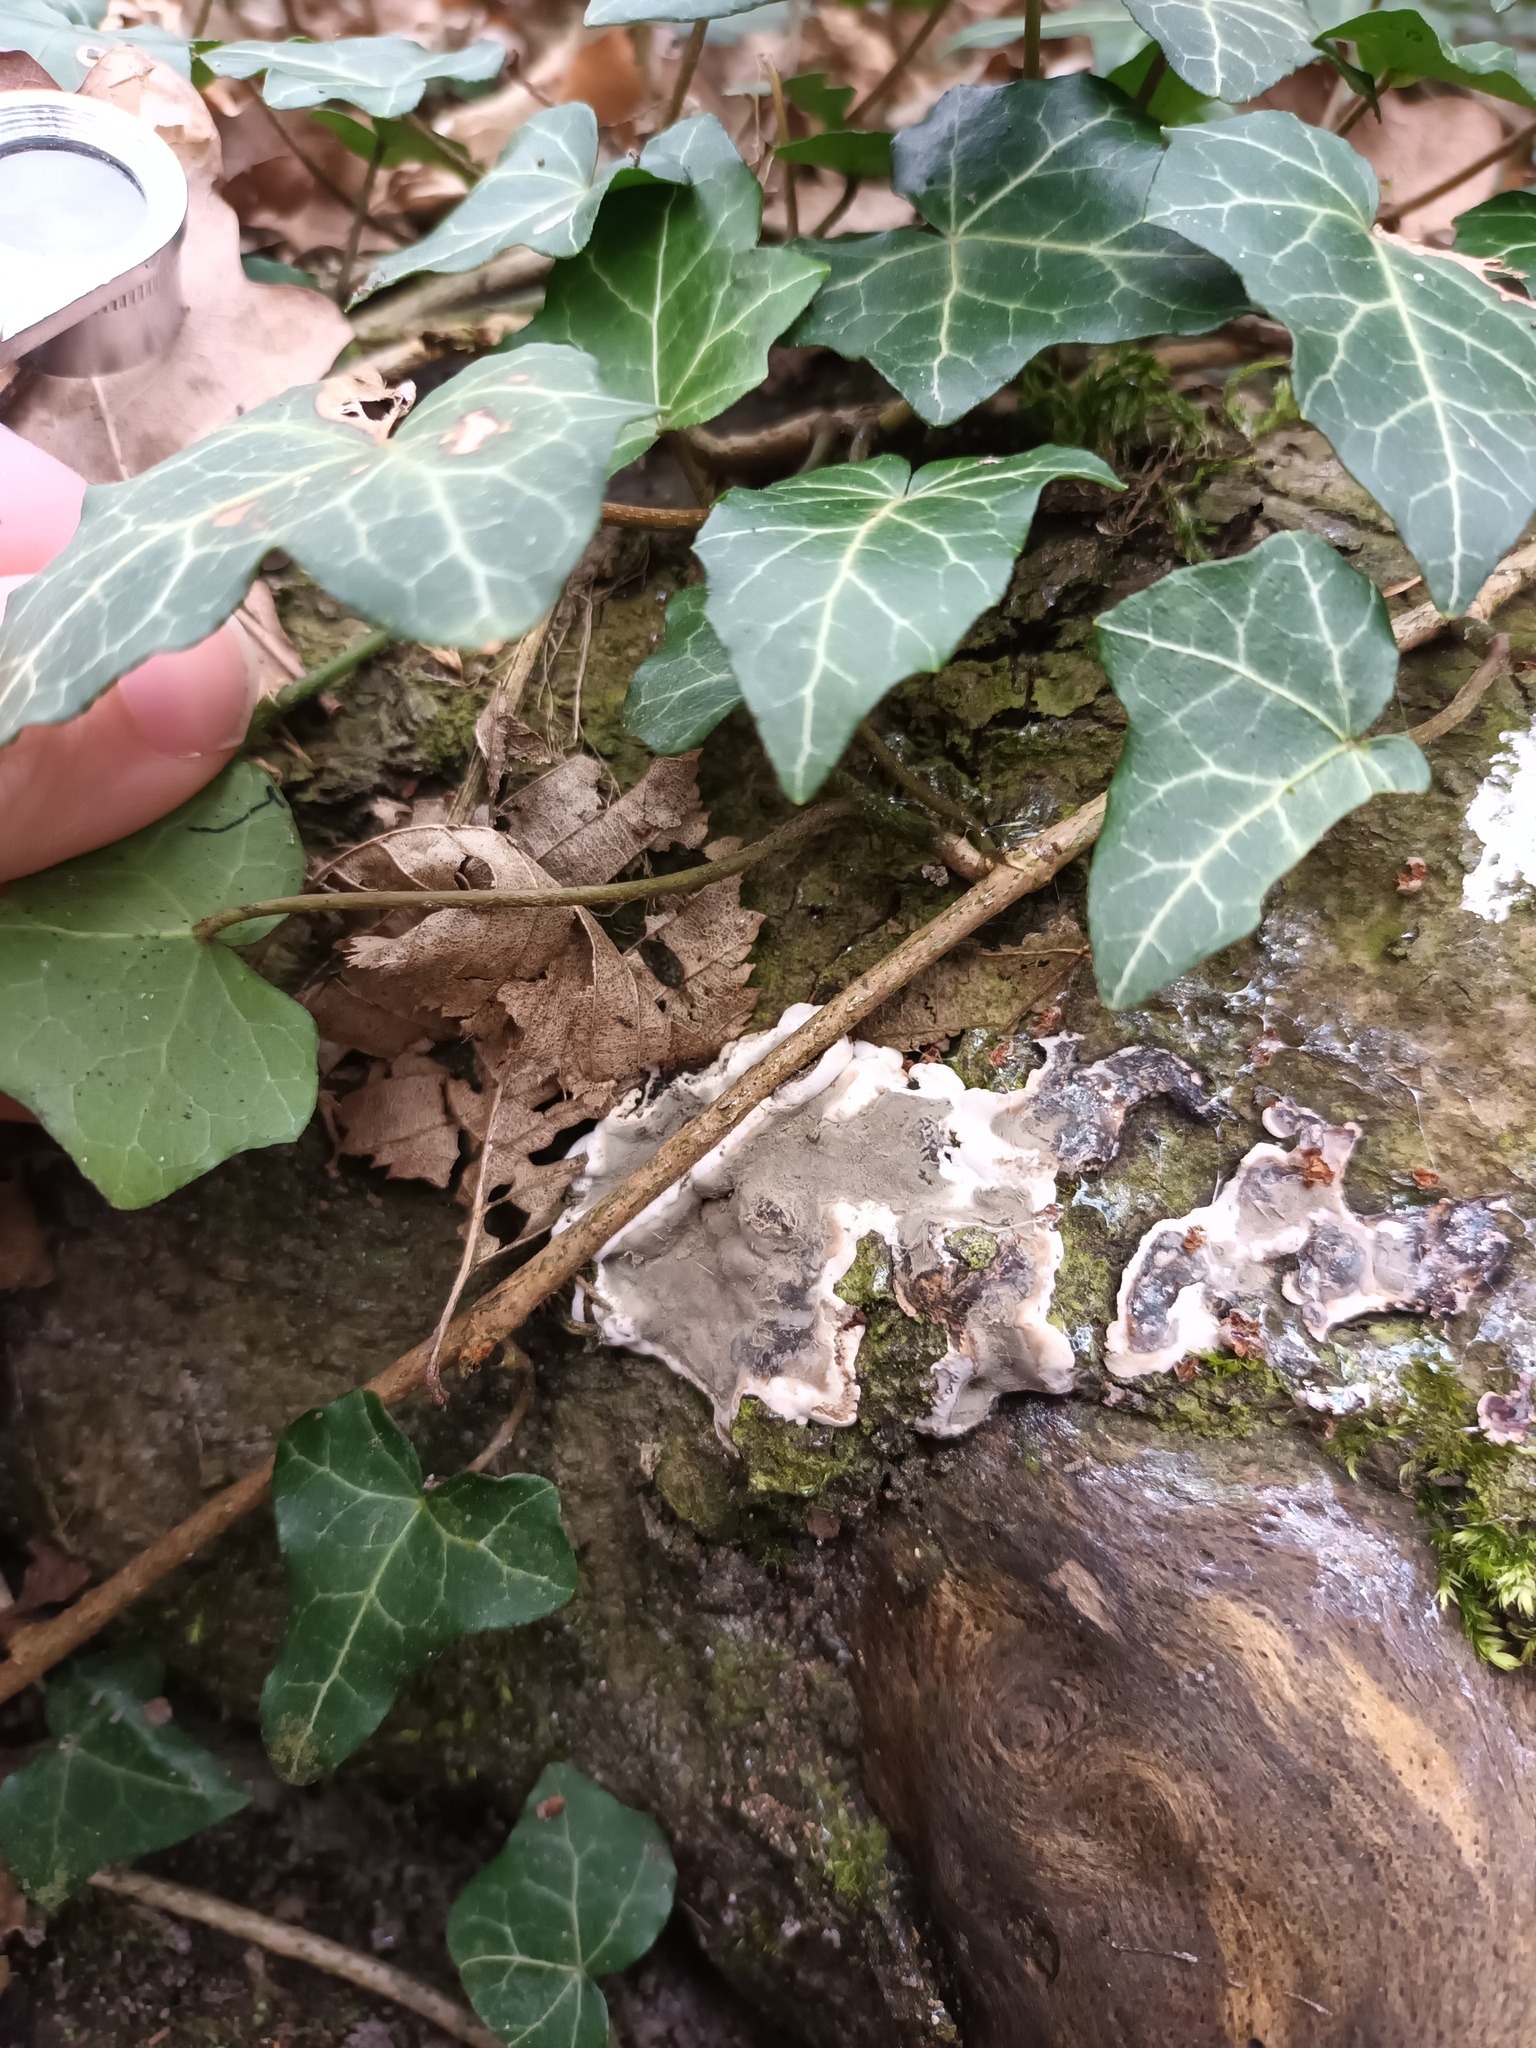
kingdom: Fungi
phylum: Ascomycota
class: Sordariomycetes
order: Xylariales
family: Xylariaceae
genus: Kretzschmaria
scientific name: Kretzschmaria deusta
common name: Brittle cinder
